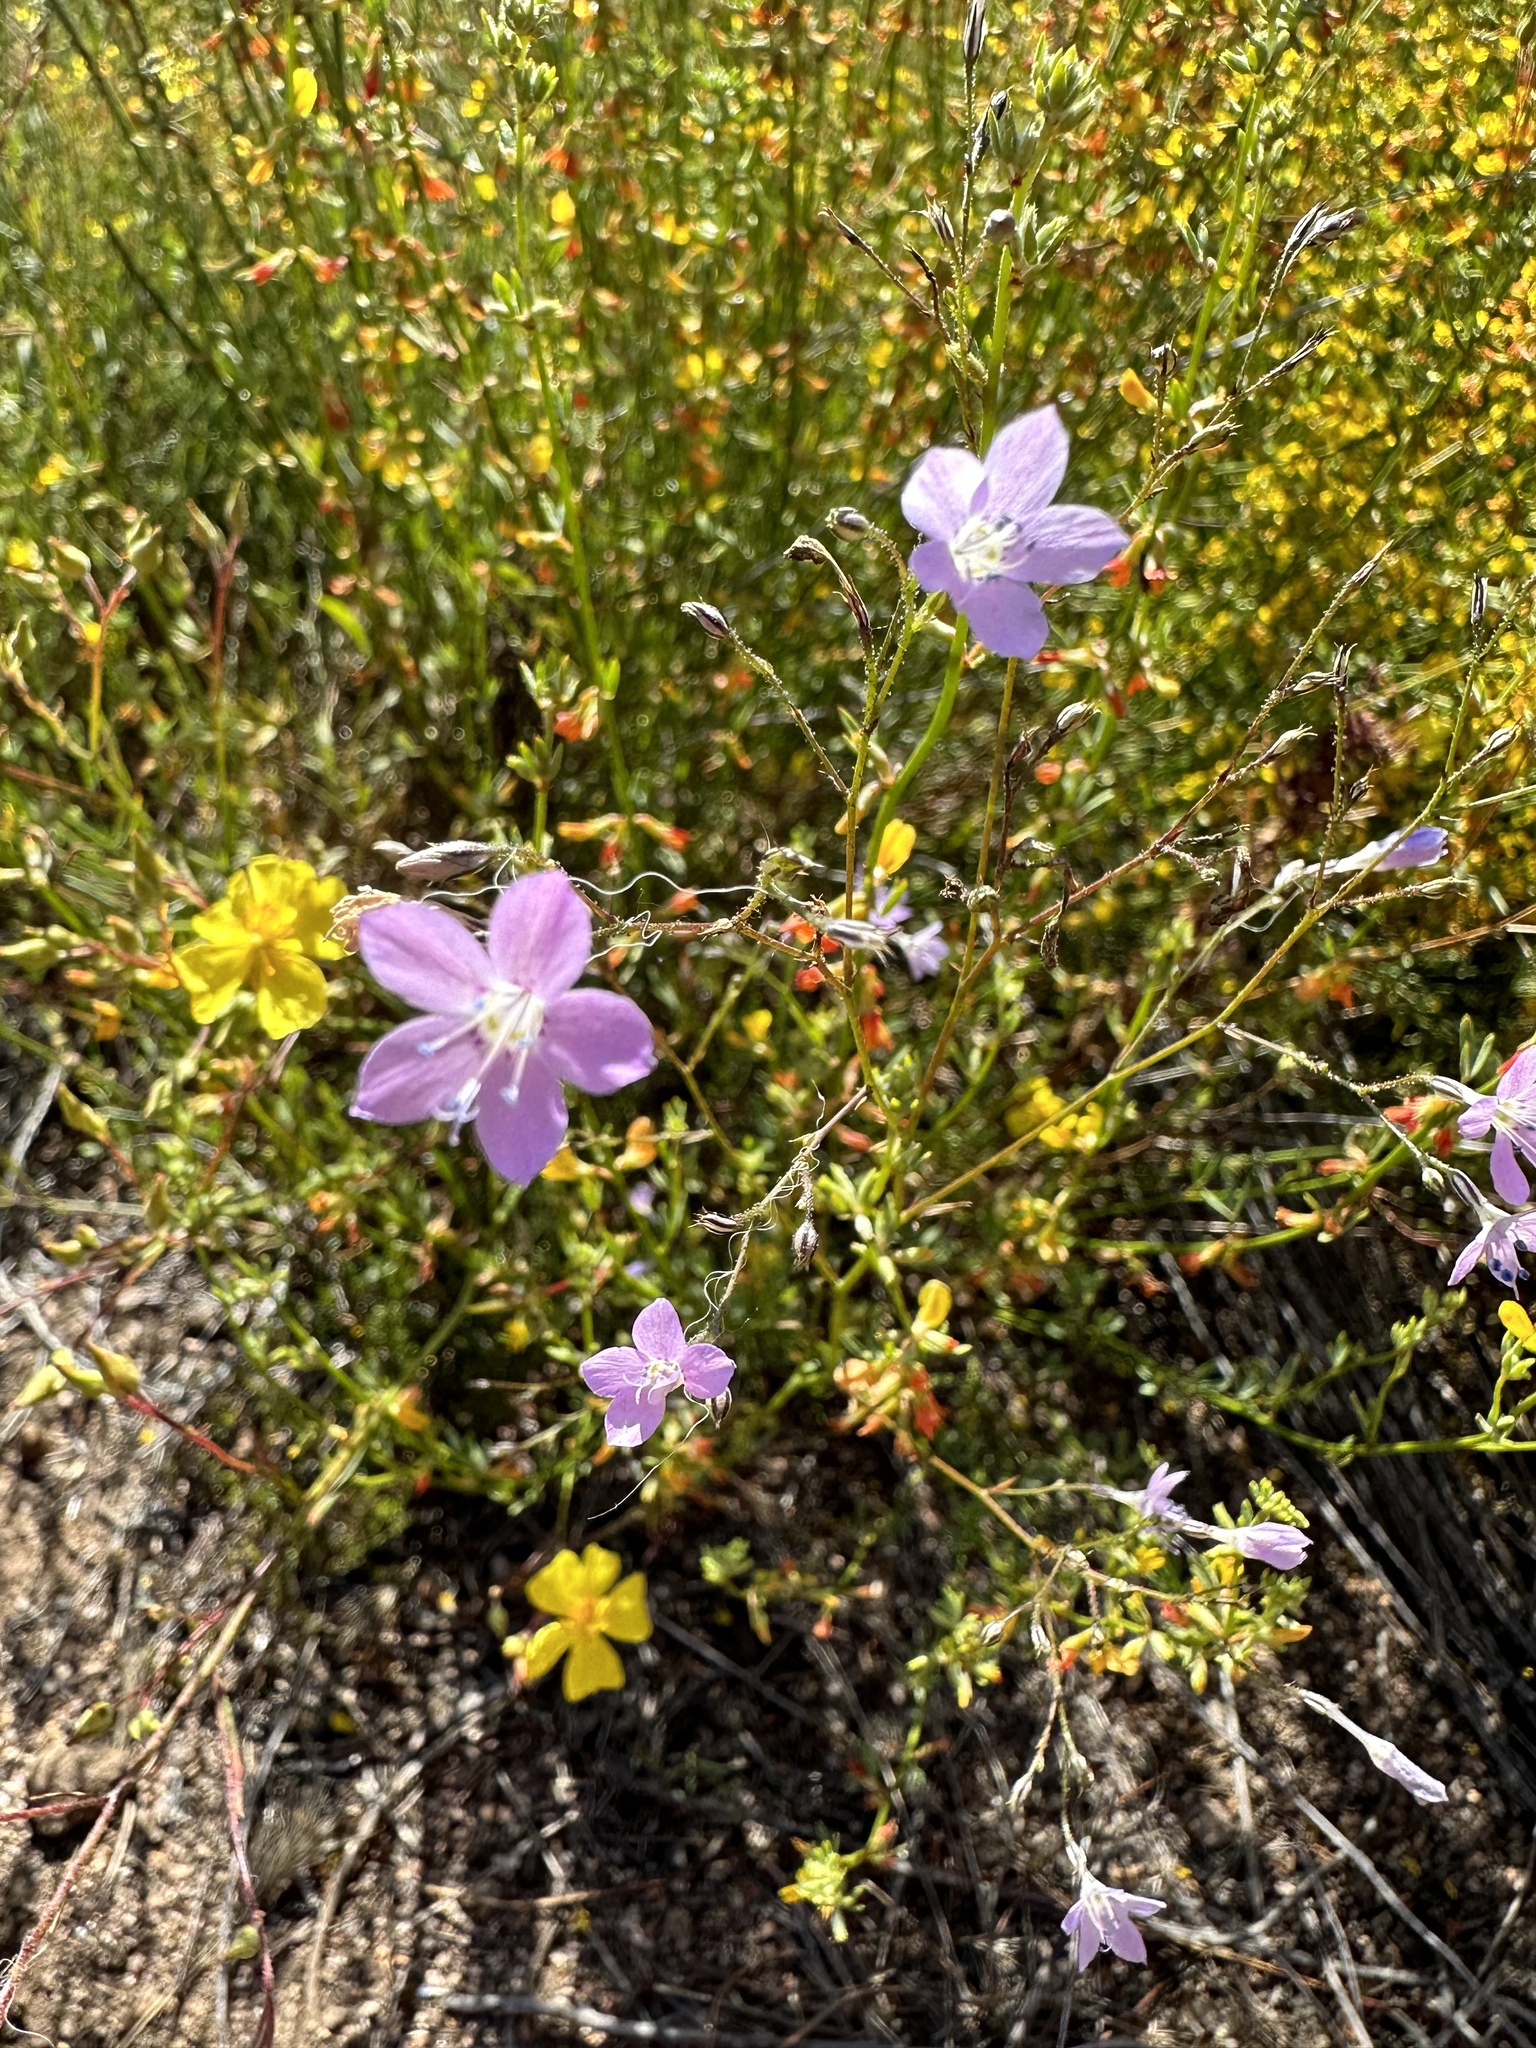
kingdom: Plantae
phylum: Tracheophyta
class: Magnoliopsida
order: Ericales
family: Polemoniaceae
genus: Saltugilia
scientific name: Saltugilia caruifolia
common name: Carawayleaf gilia
